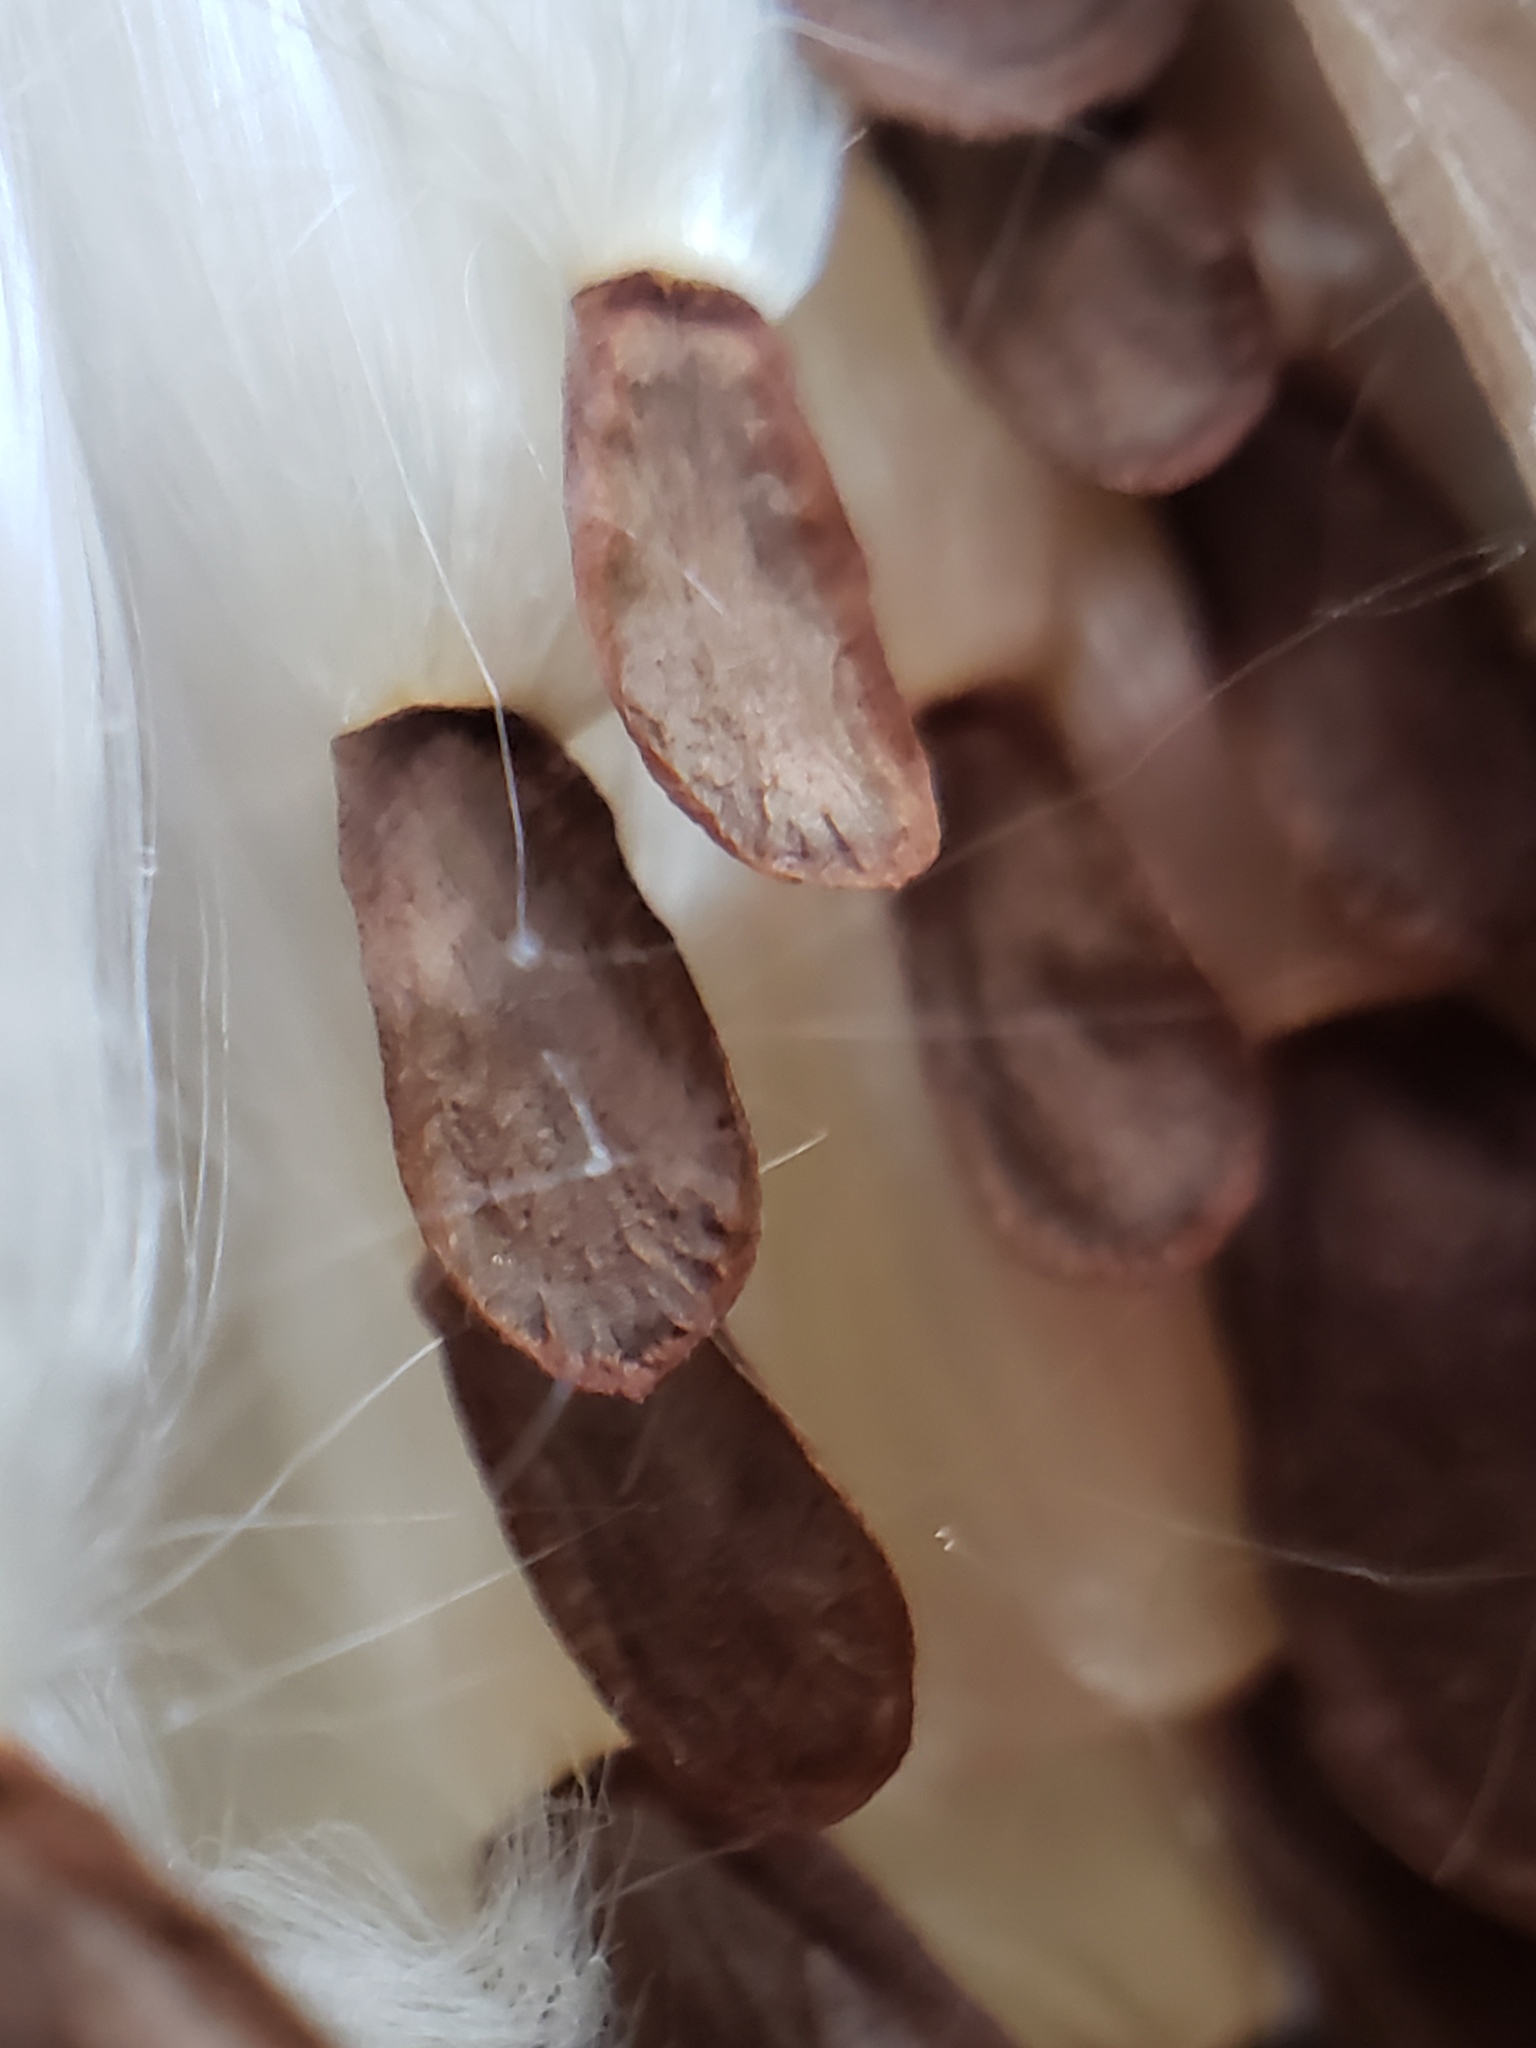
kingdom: Plantae
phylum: Tracheophyta
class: Magnoliopsida
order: Gentianales
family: Apocynaceae
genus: Asclepias
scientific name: Asclepias speciosa
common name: Showy milkweed
